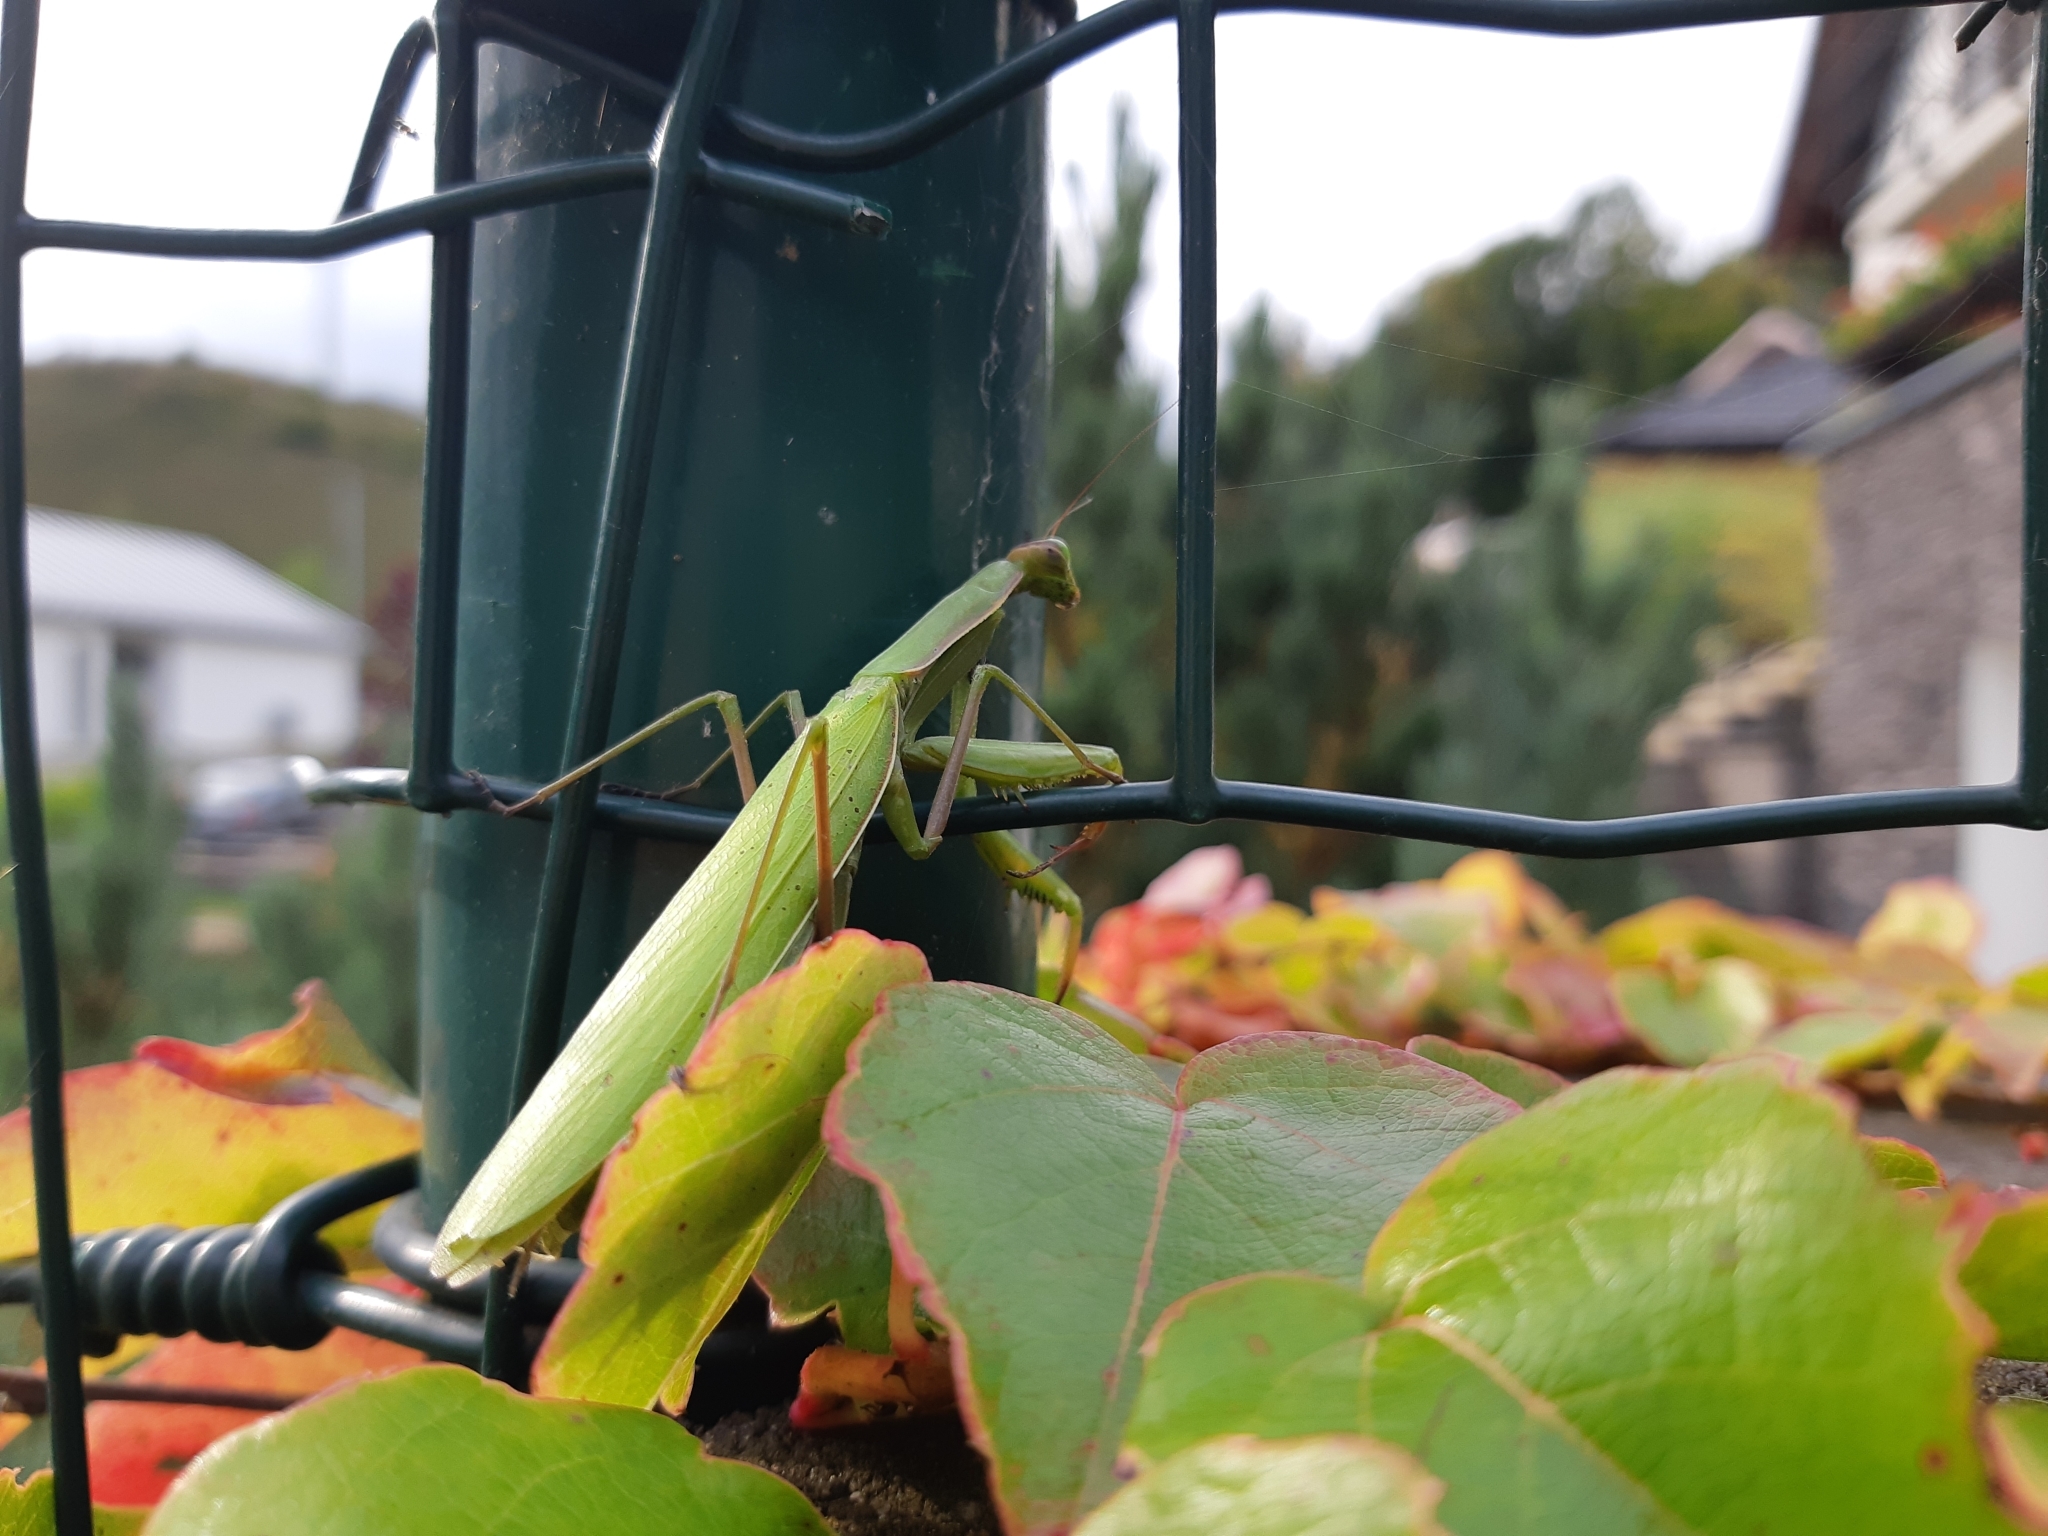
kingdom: Animalia
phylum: Arthropoda
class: Insecta
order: Mantodea
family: Mantidae
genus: Mantis
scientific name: Mantis religiosa
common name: Praying mantis
